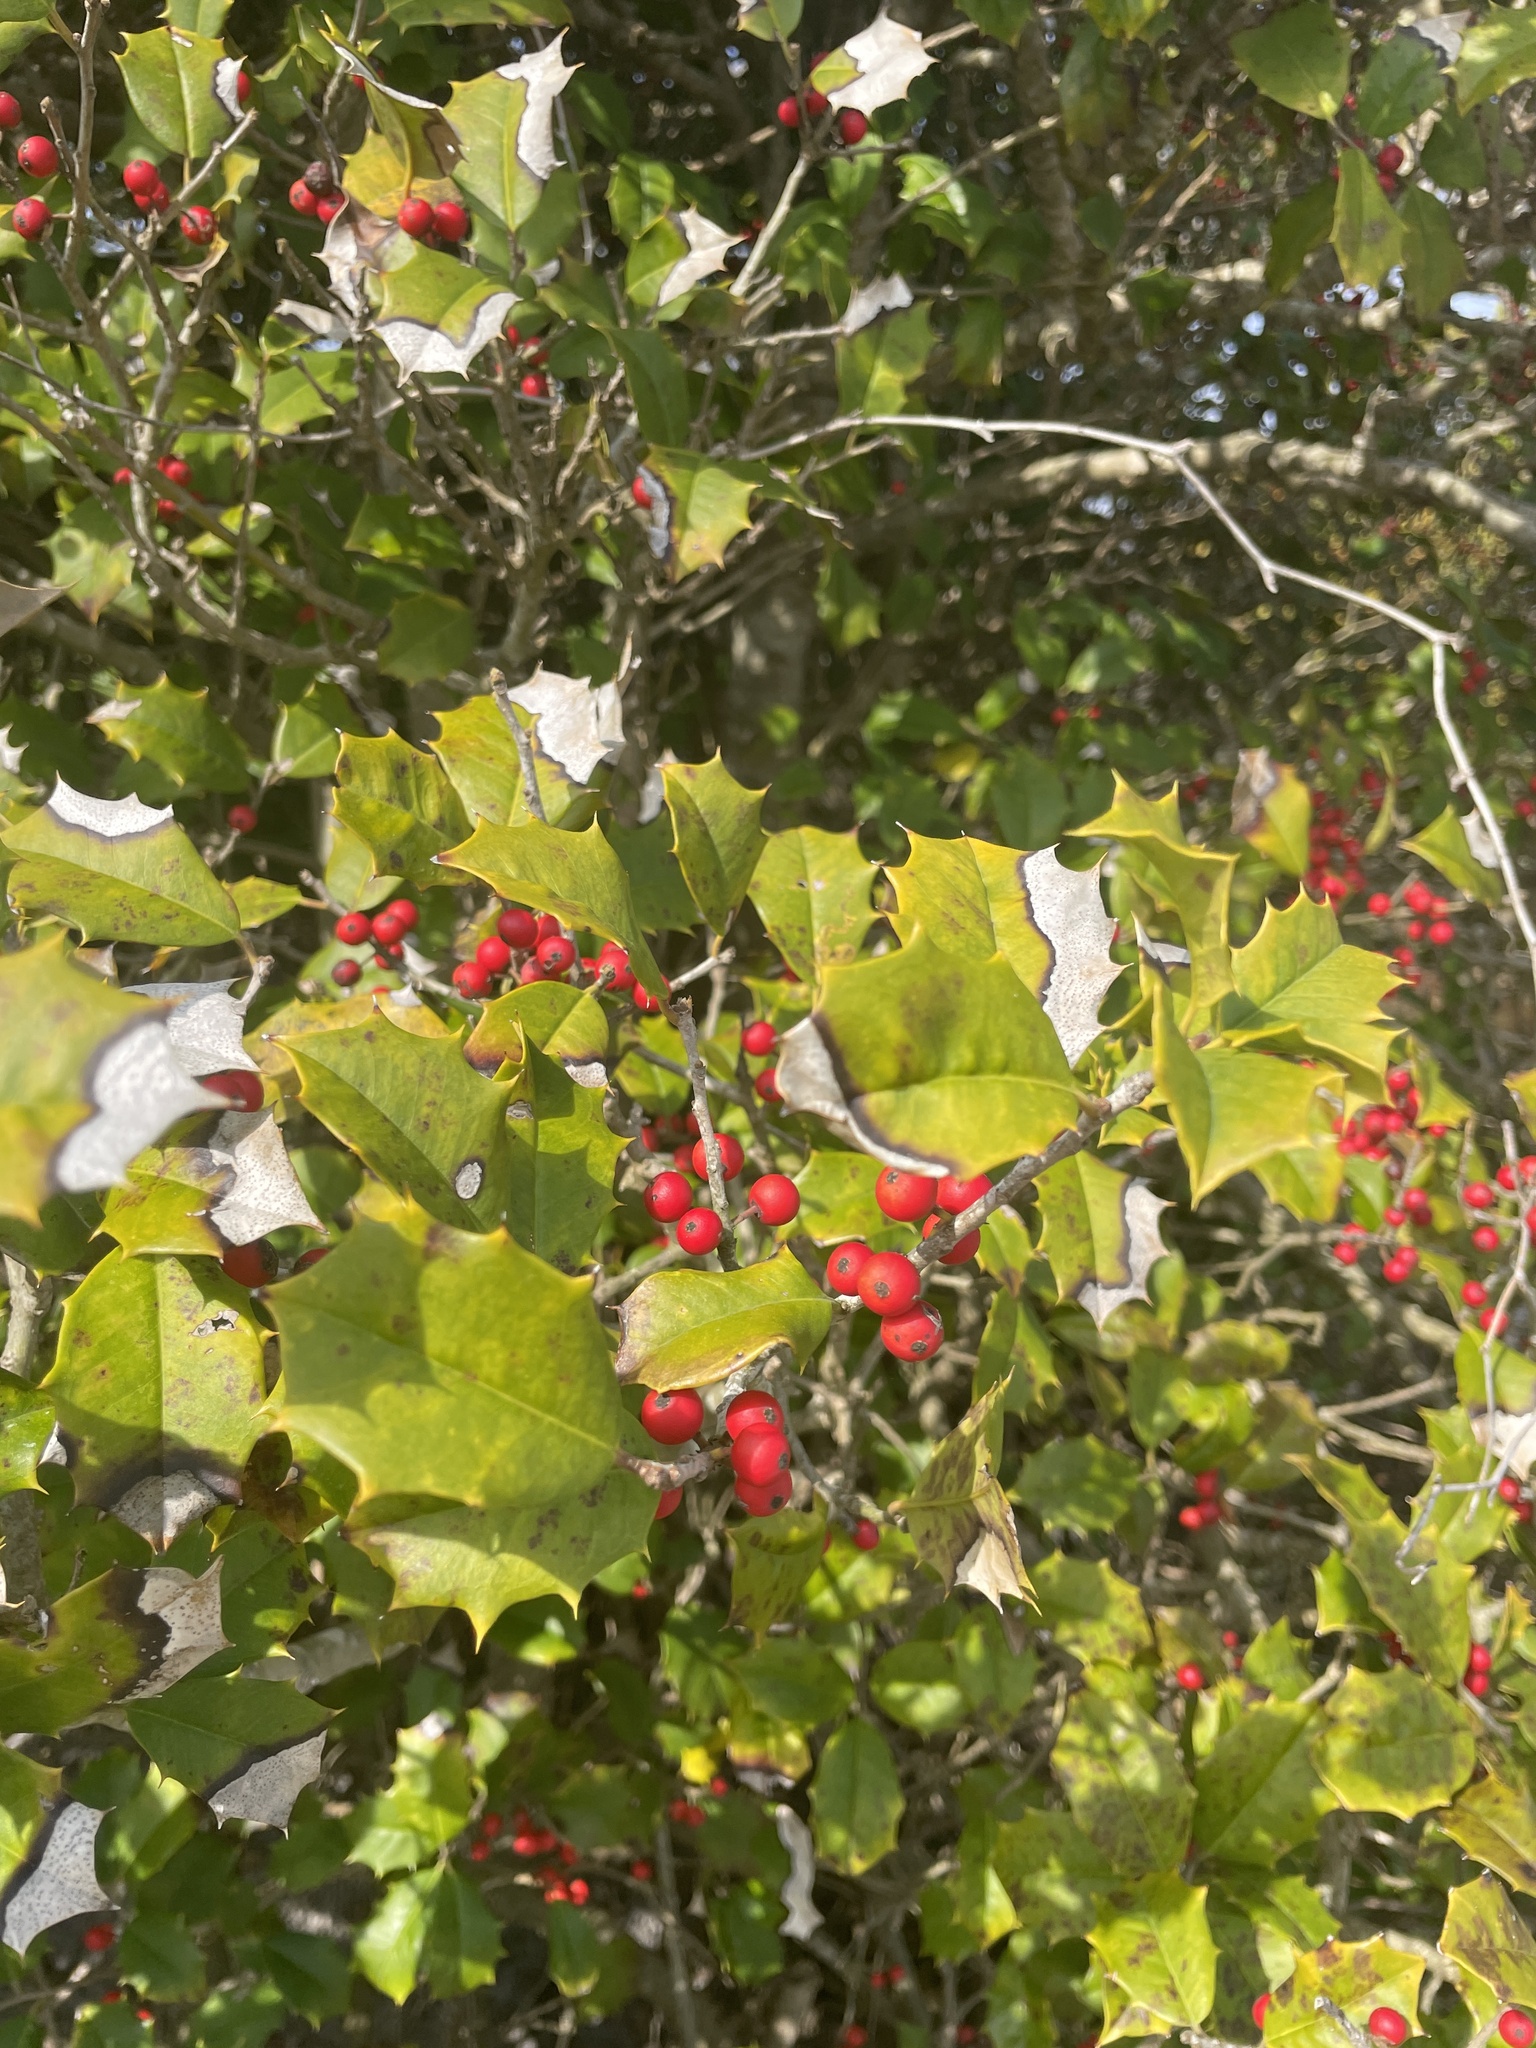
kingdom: Plantae
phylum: Tracheophyta
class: Magnoliopsida
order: Aquifoliales
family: Aquifoliaceae
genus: Ilex
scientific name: Ilex opaca
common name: American holly
